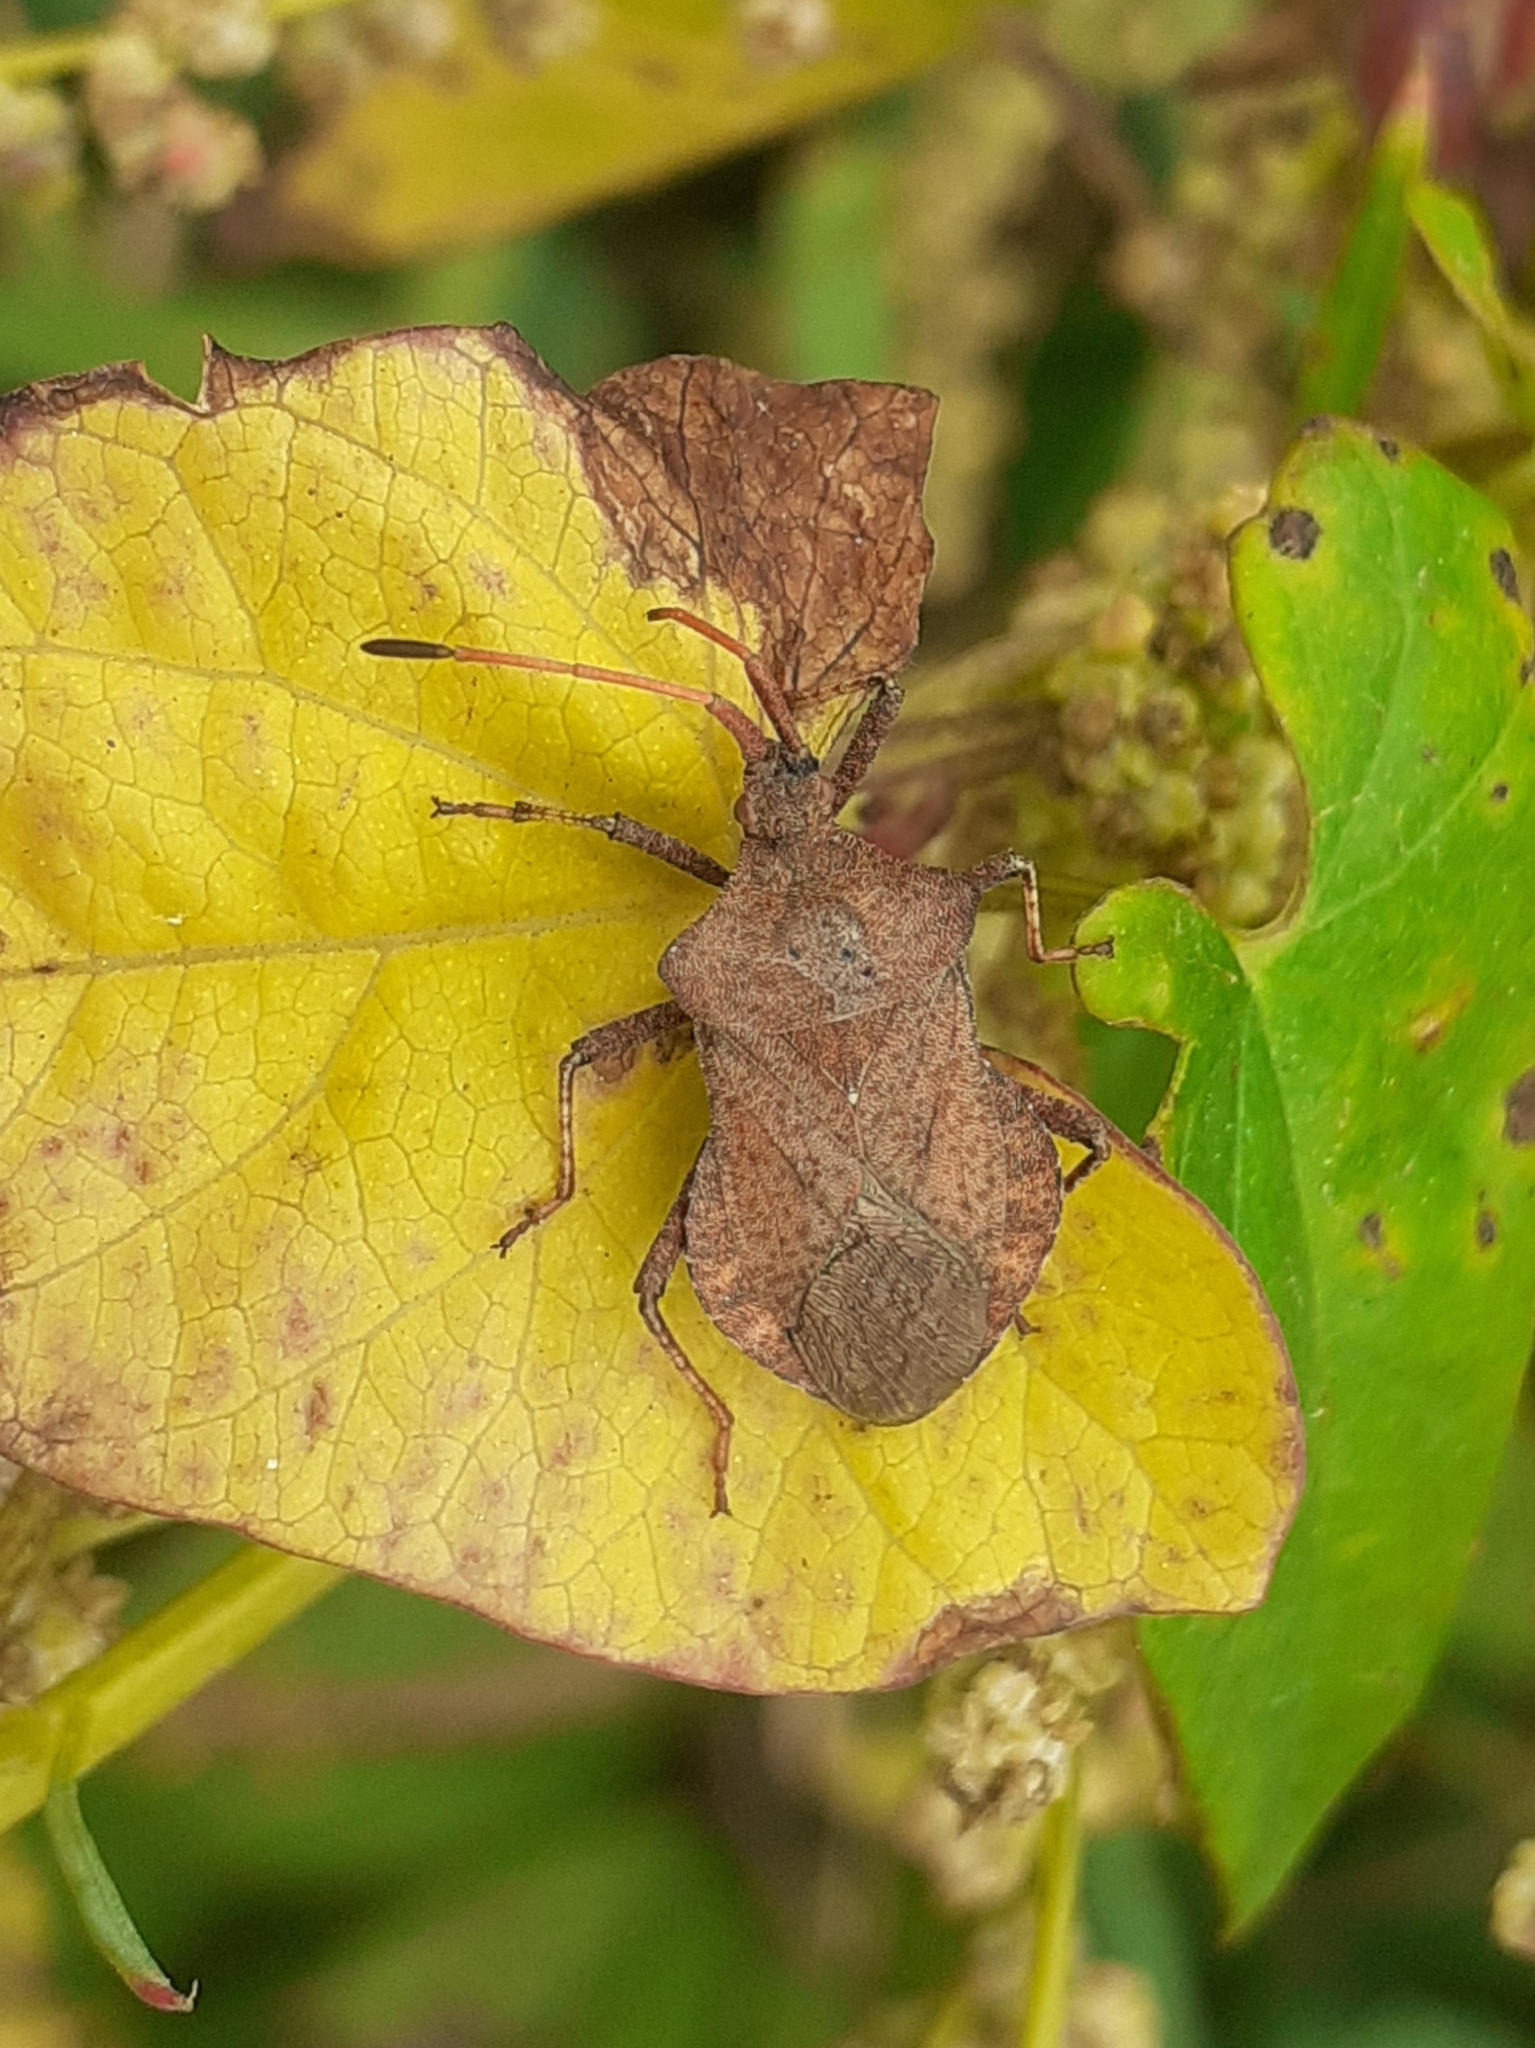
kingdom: Animalia
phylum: Arthropoda
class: Insecta
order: Hemiptera
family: Coreidae
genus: Coreus
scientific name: Coreus marginatus
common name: Dock bug
